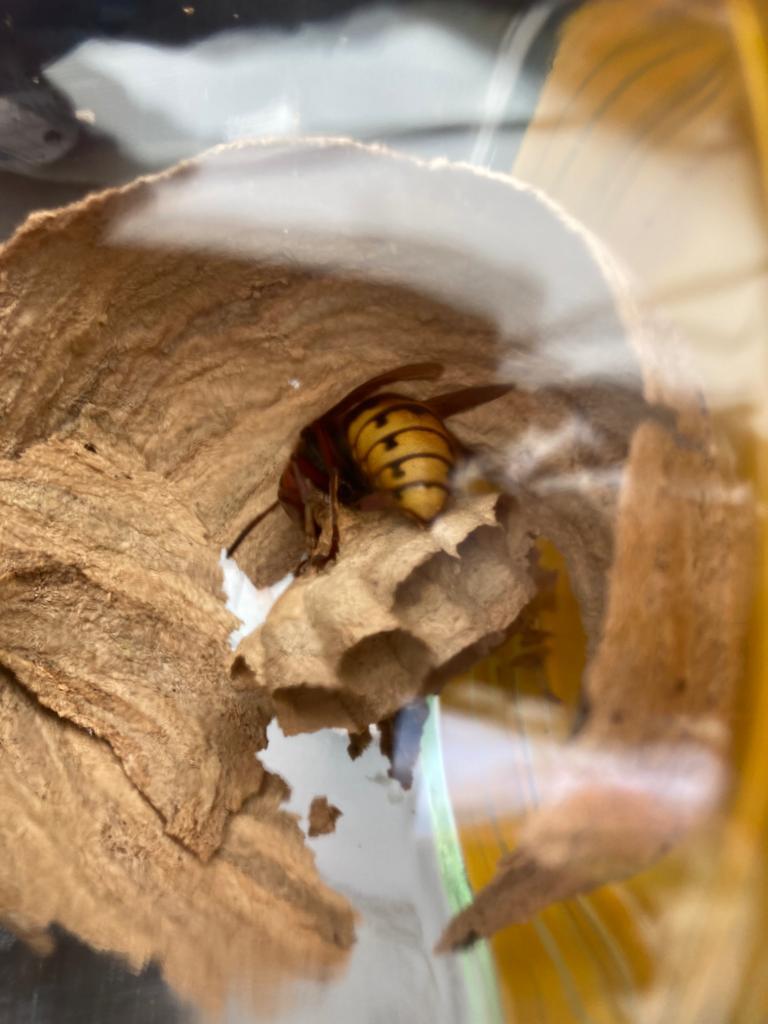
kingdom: Animalia
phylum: Arthropoda
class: Insecta
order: Hymenoptera
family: Vespidae
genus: Vespa
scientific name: Vespa crabro
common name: Hornet
